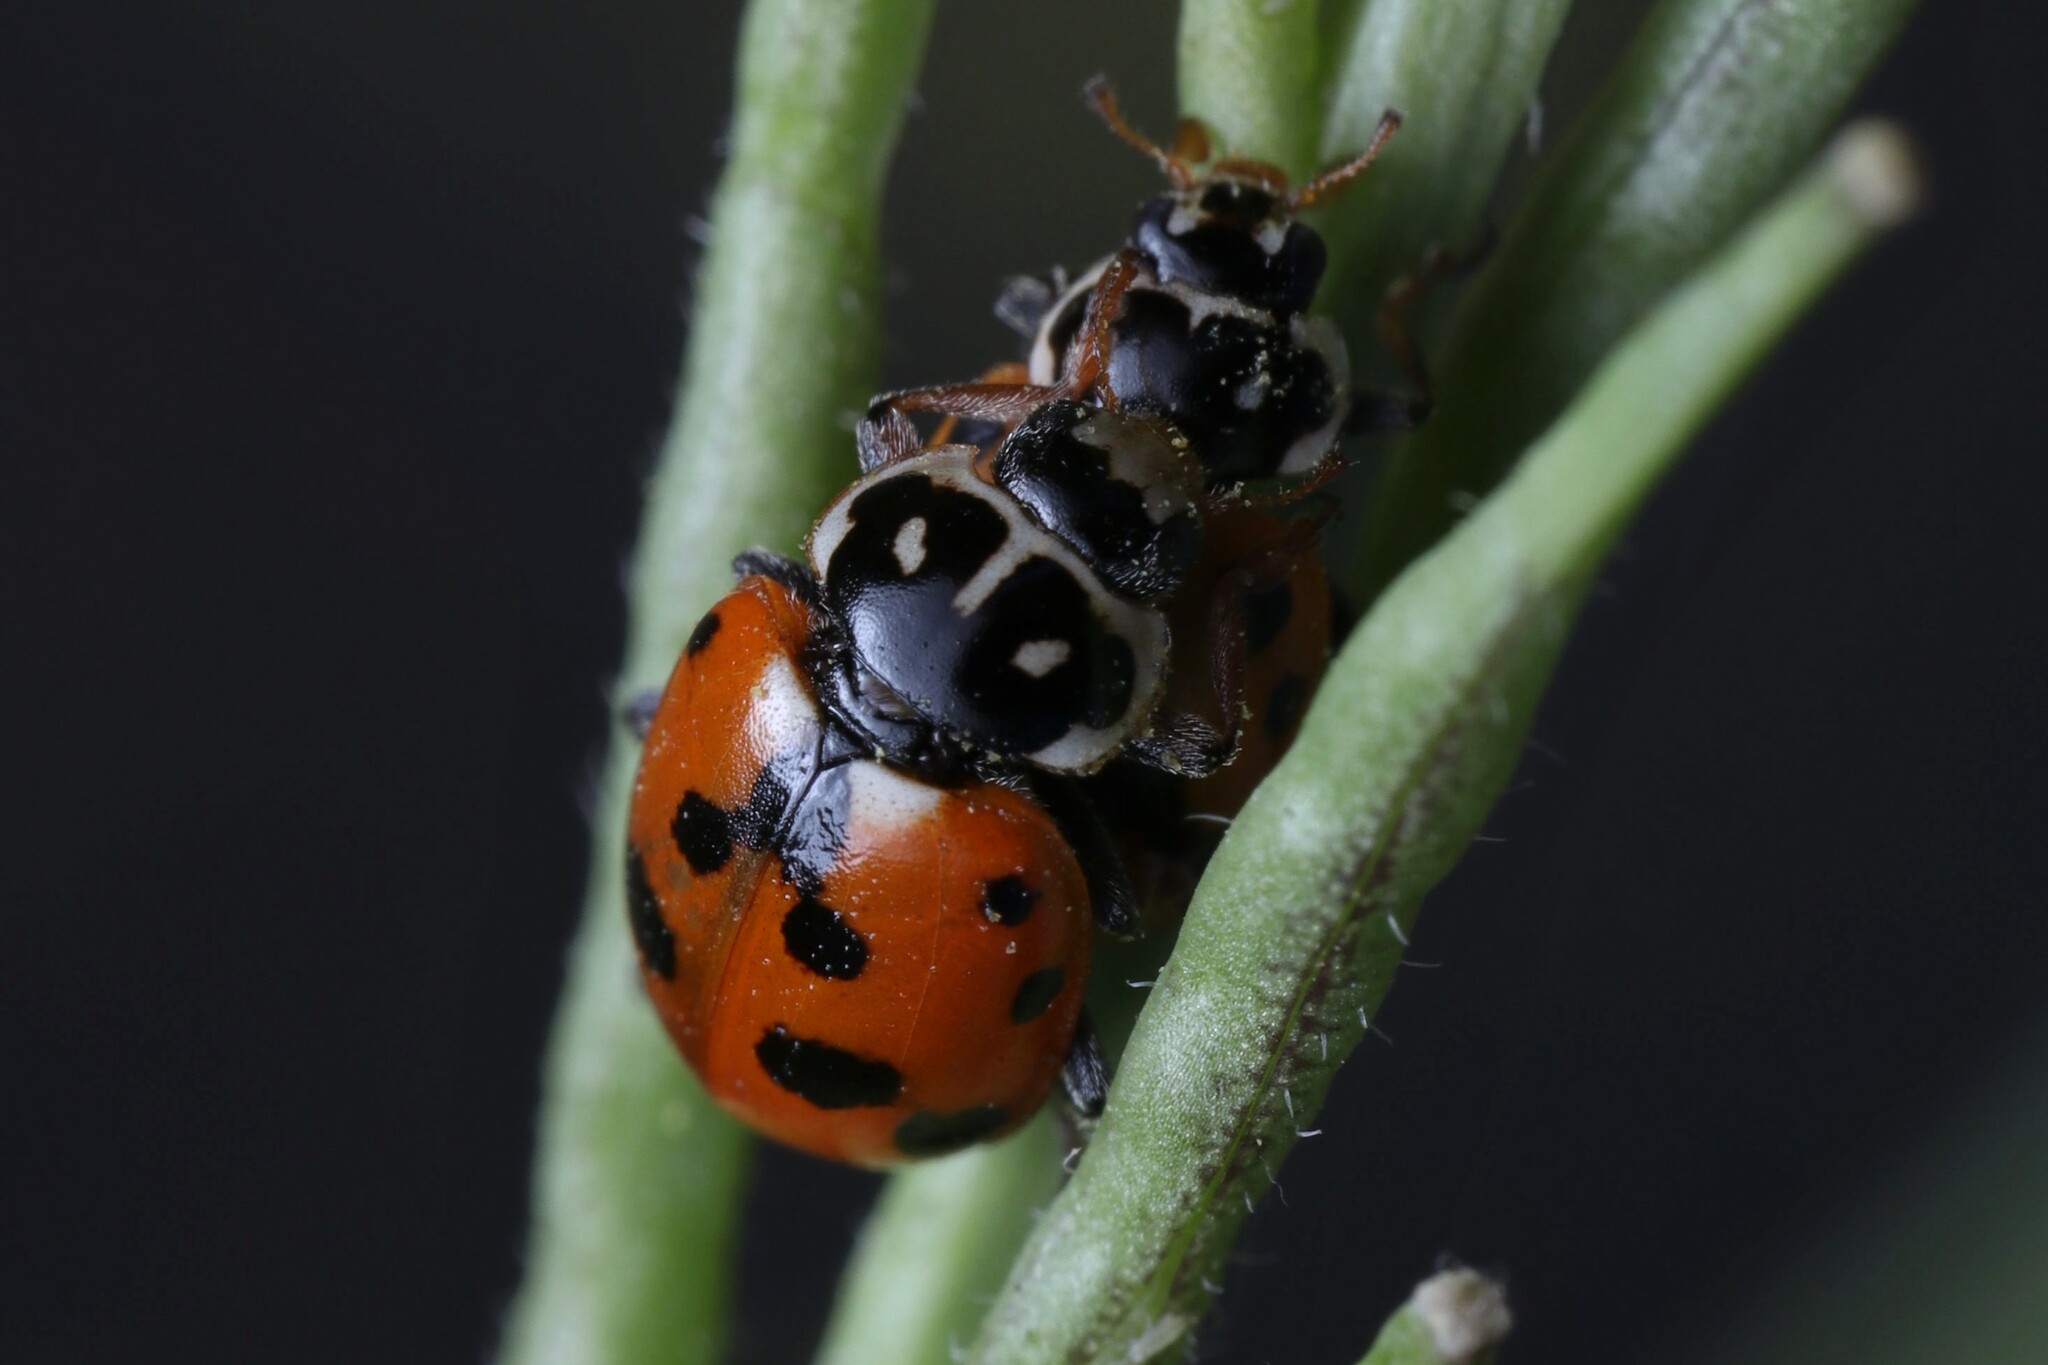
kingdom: Animalia
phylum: Arthropoda
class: Insecta
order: Coleoptera
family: Coccinellidae
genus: Hippodamia
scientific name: Hippodamia variegata
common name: Ladybird beetle
